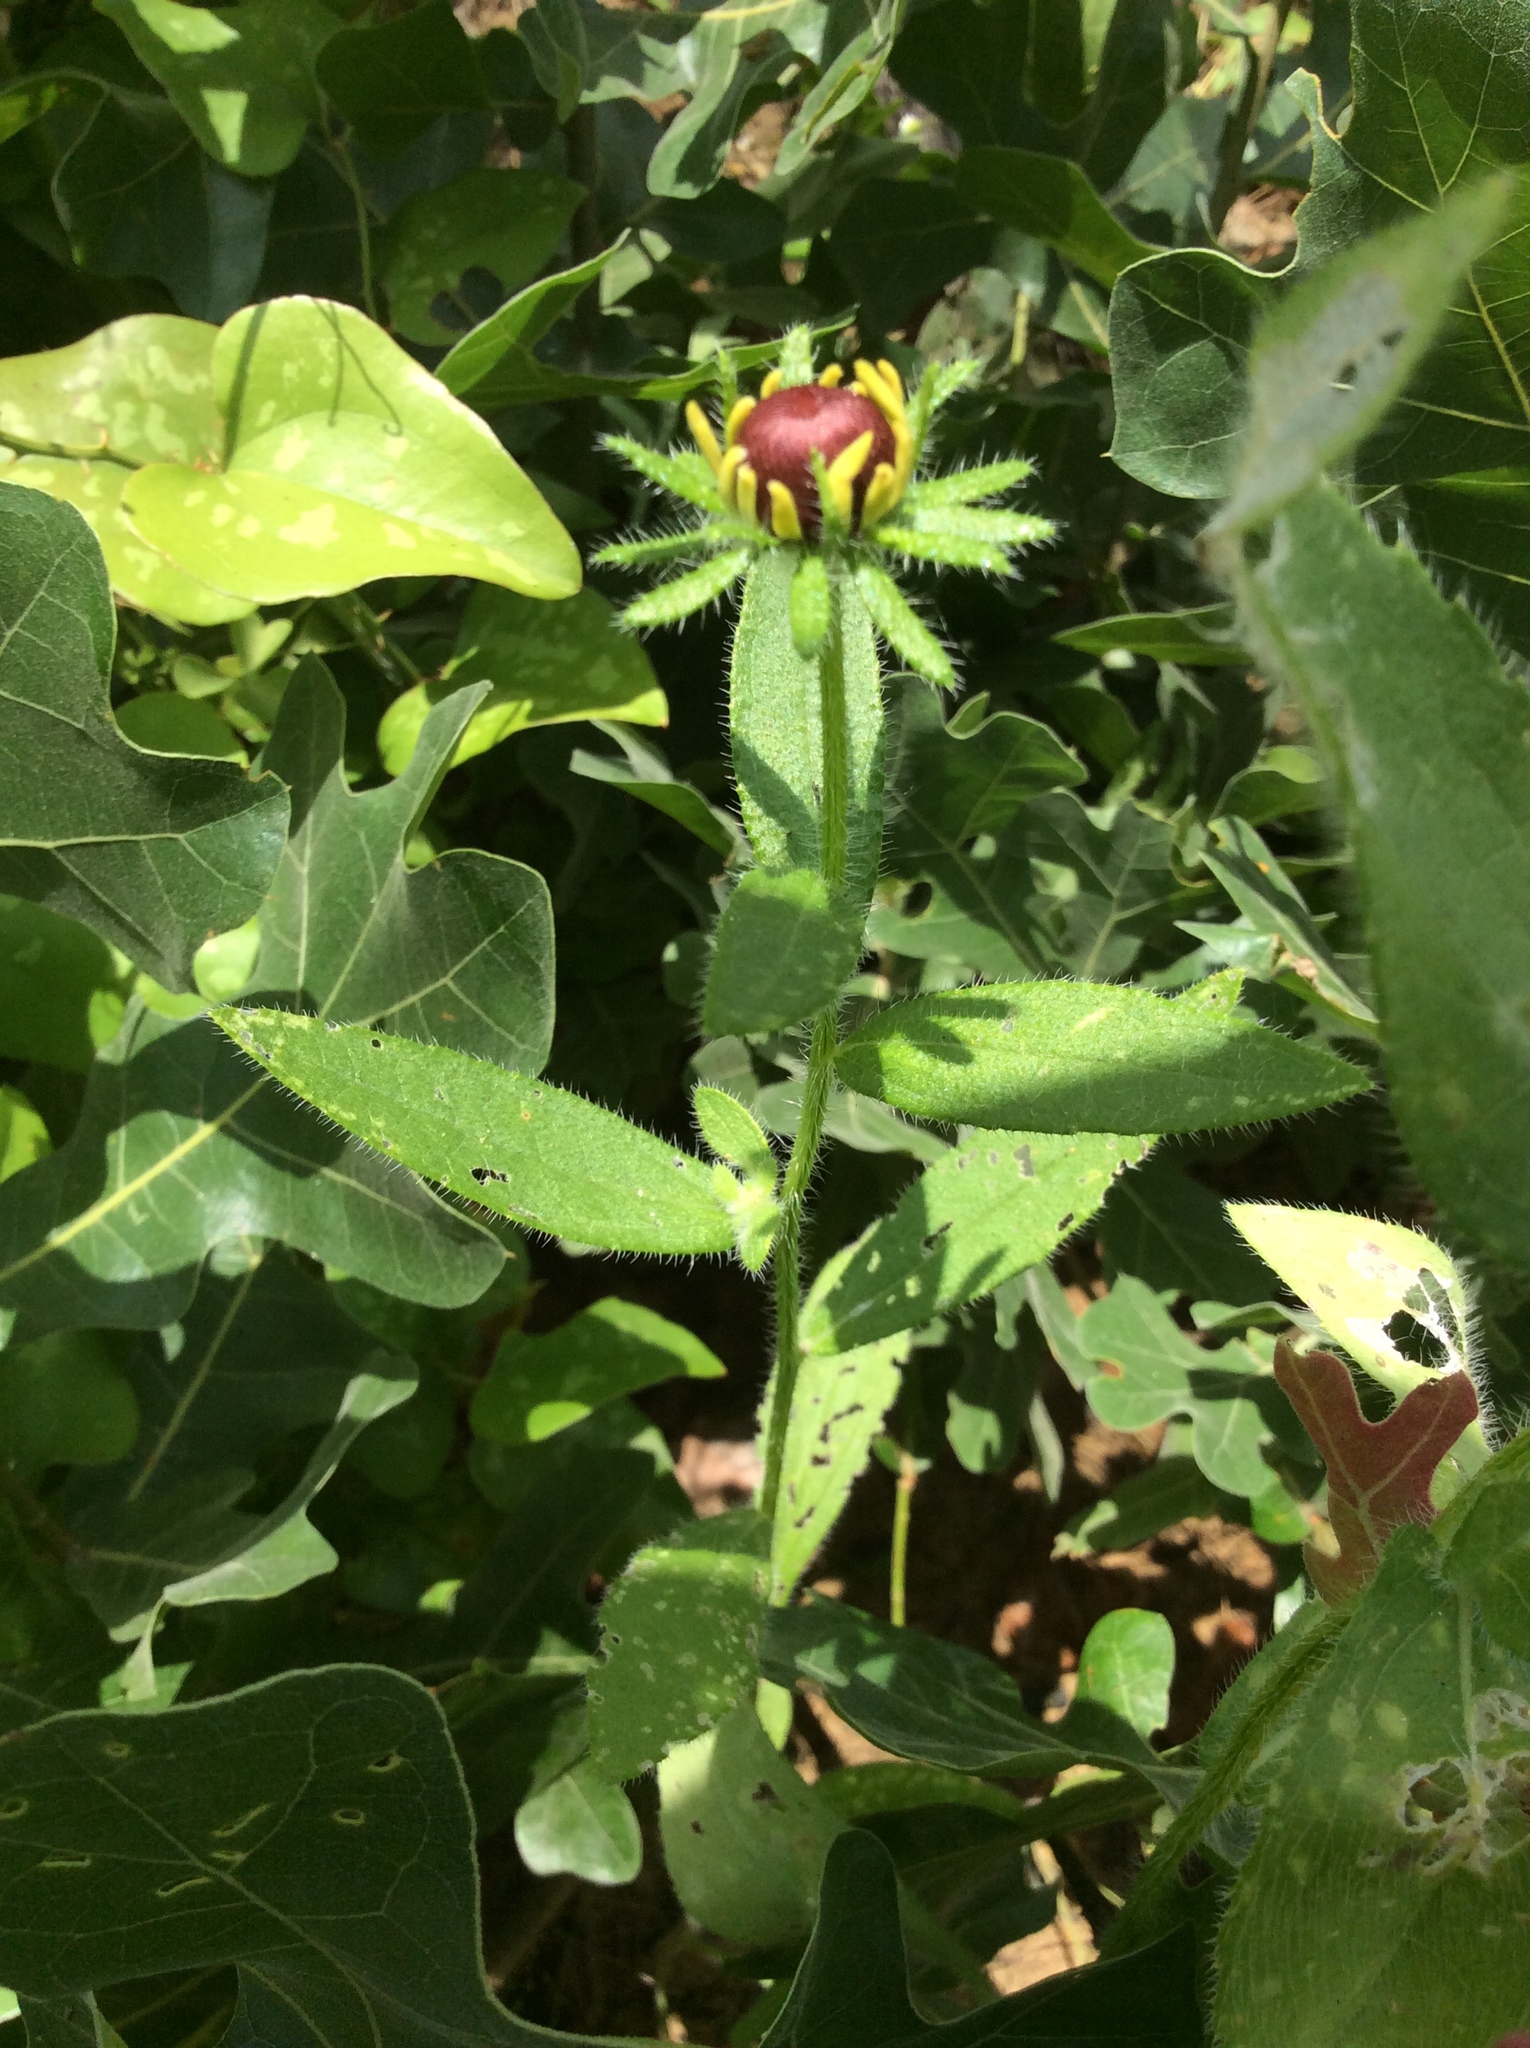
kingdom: Plantae
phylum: Tracheophyta
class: Magnoliopsida
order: Asterales
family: Asteraceae
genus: Rudbeckia
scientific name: Rudbeckia hirta
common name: Black-eyed-susan
